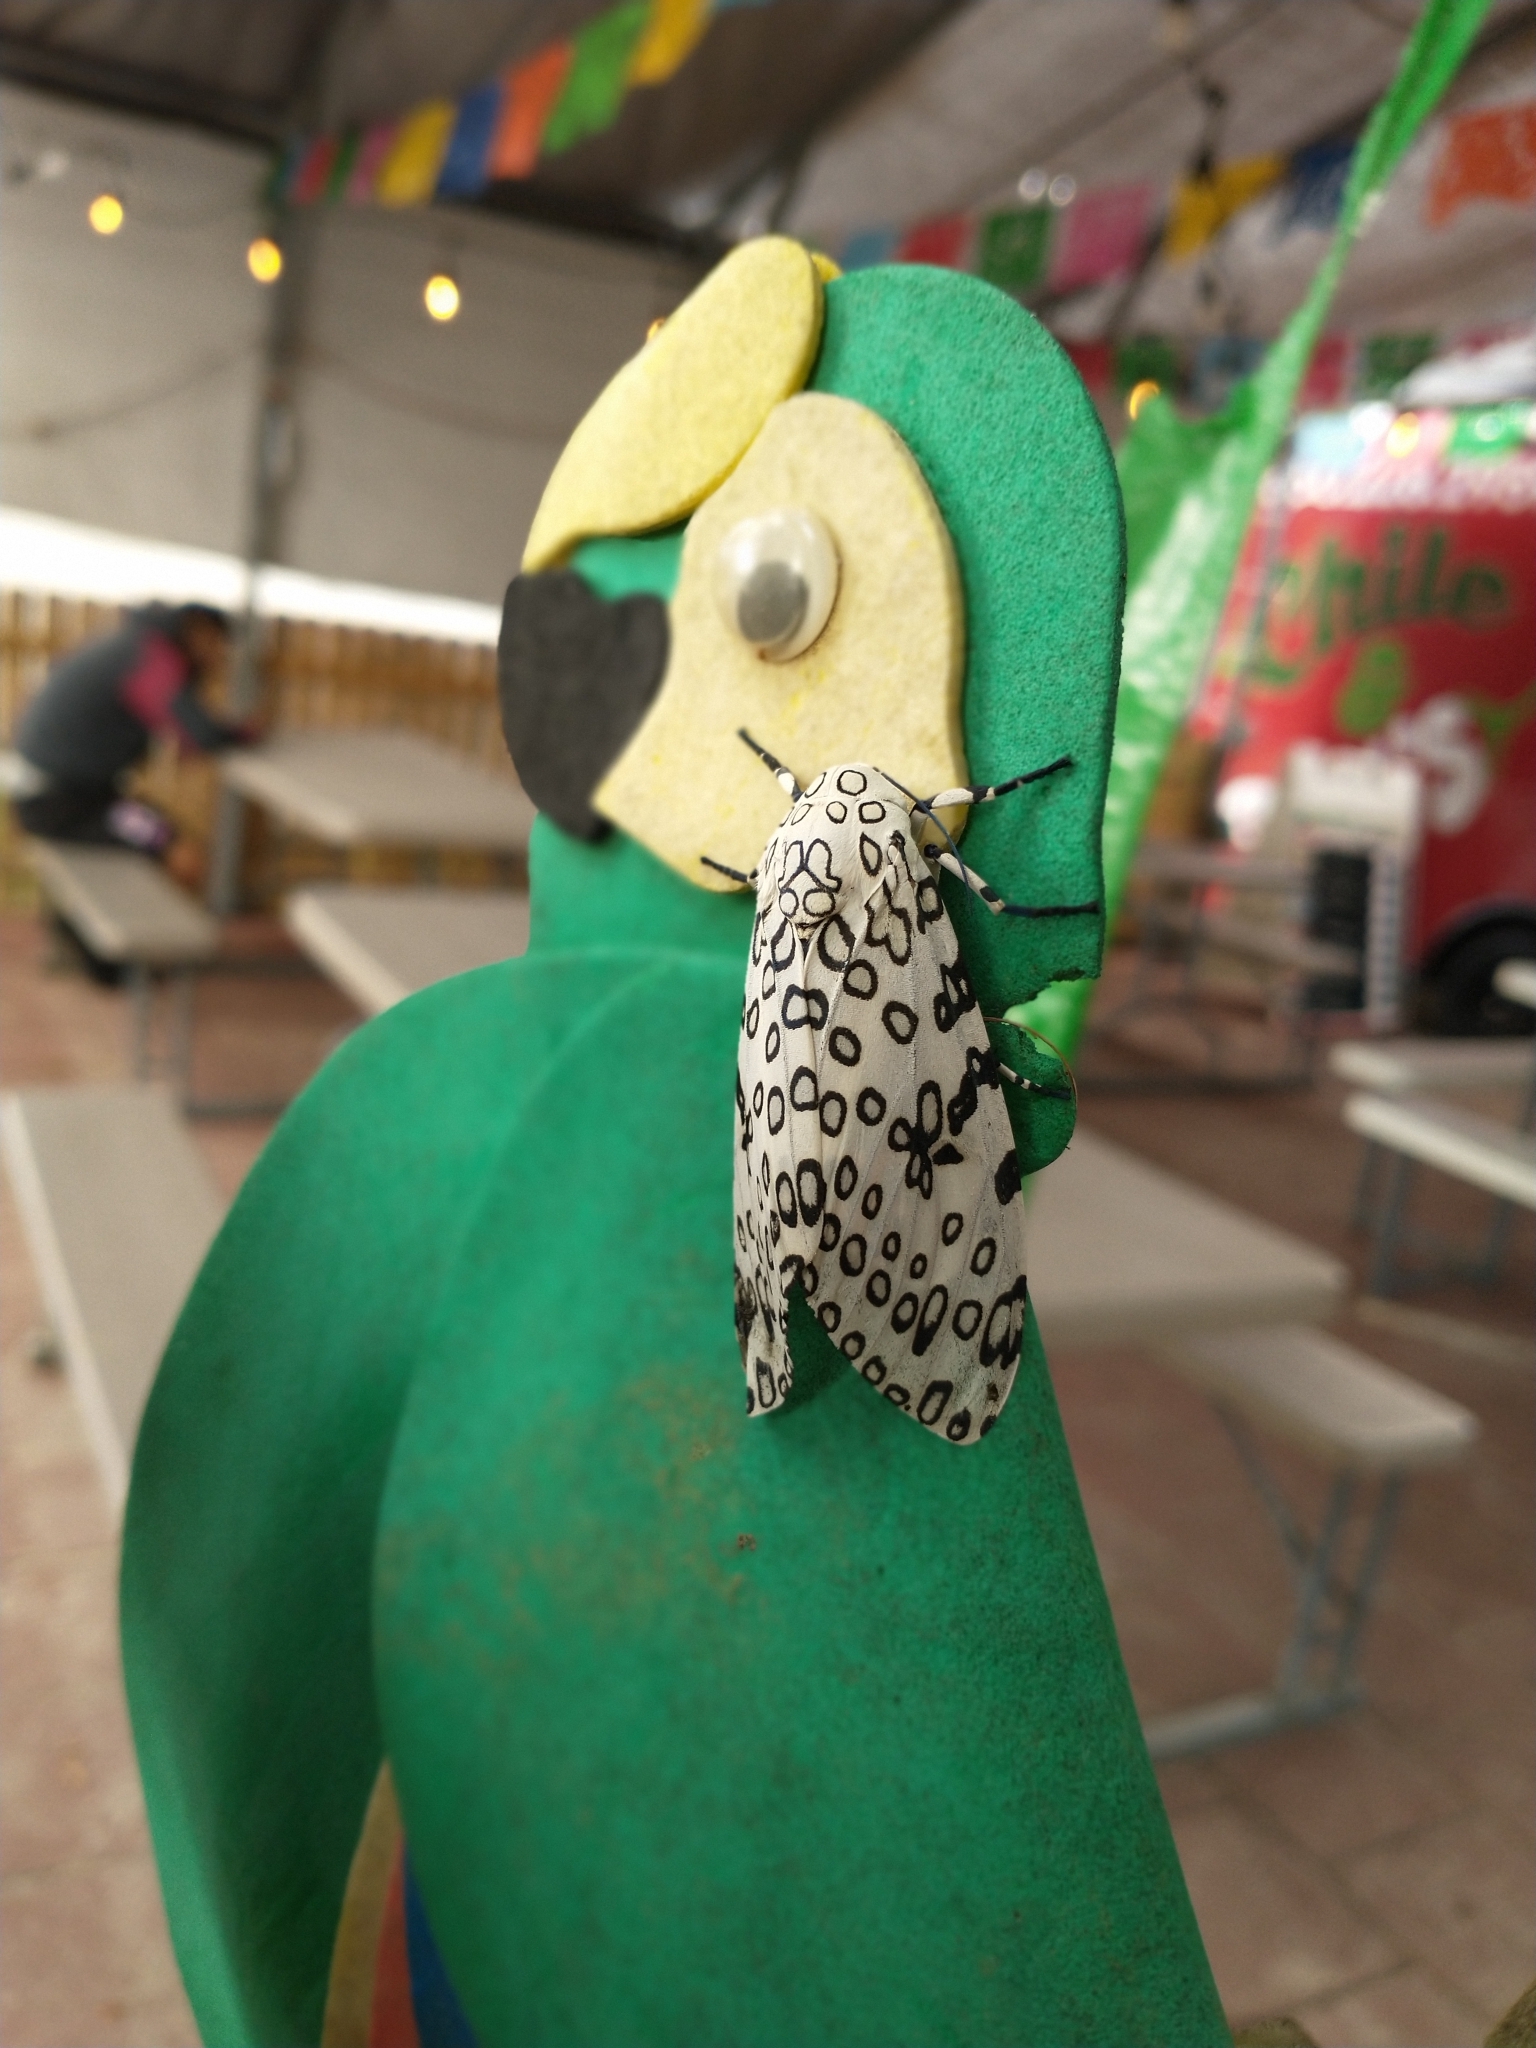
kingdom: Animalia
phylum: Arthropoda
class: Insecta
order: Lepidoptera
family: Erebidae
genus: Hypercompe
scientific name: Hypercompe scribonia
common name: Giant leopard moth
